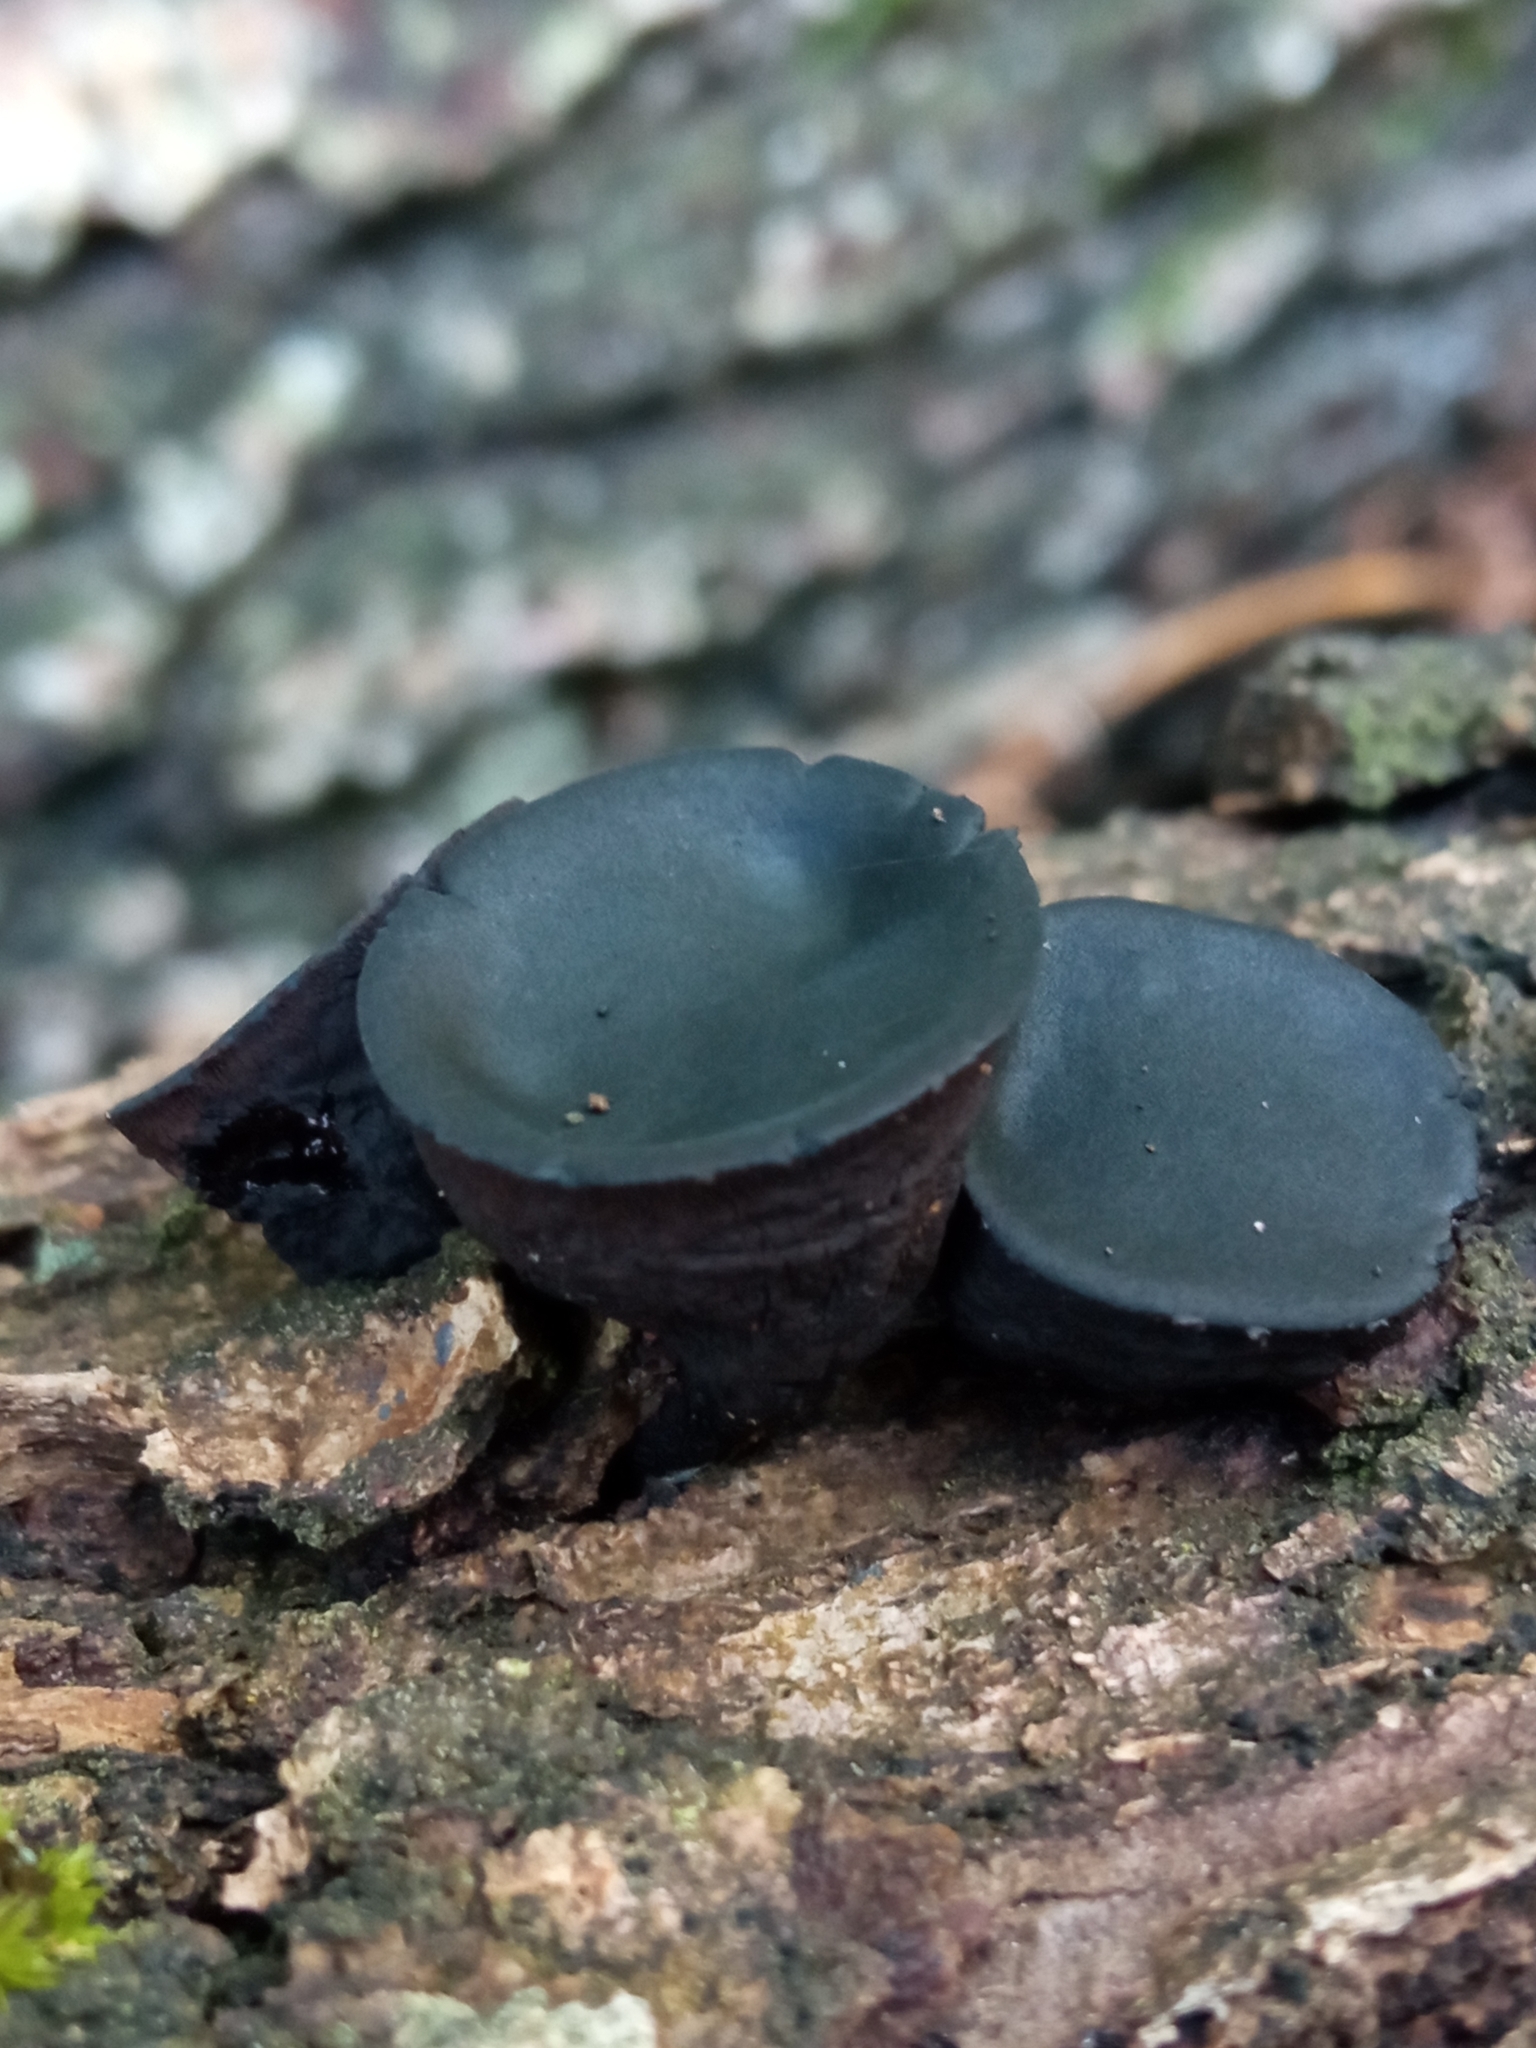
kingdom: Fungi
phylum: Ascomycota
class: Leotiomycetes
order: Phacidiales
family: Phacidiaceae
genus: Bulgaria
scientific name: Bulgaria inquinans
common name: Black bulgar
